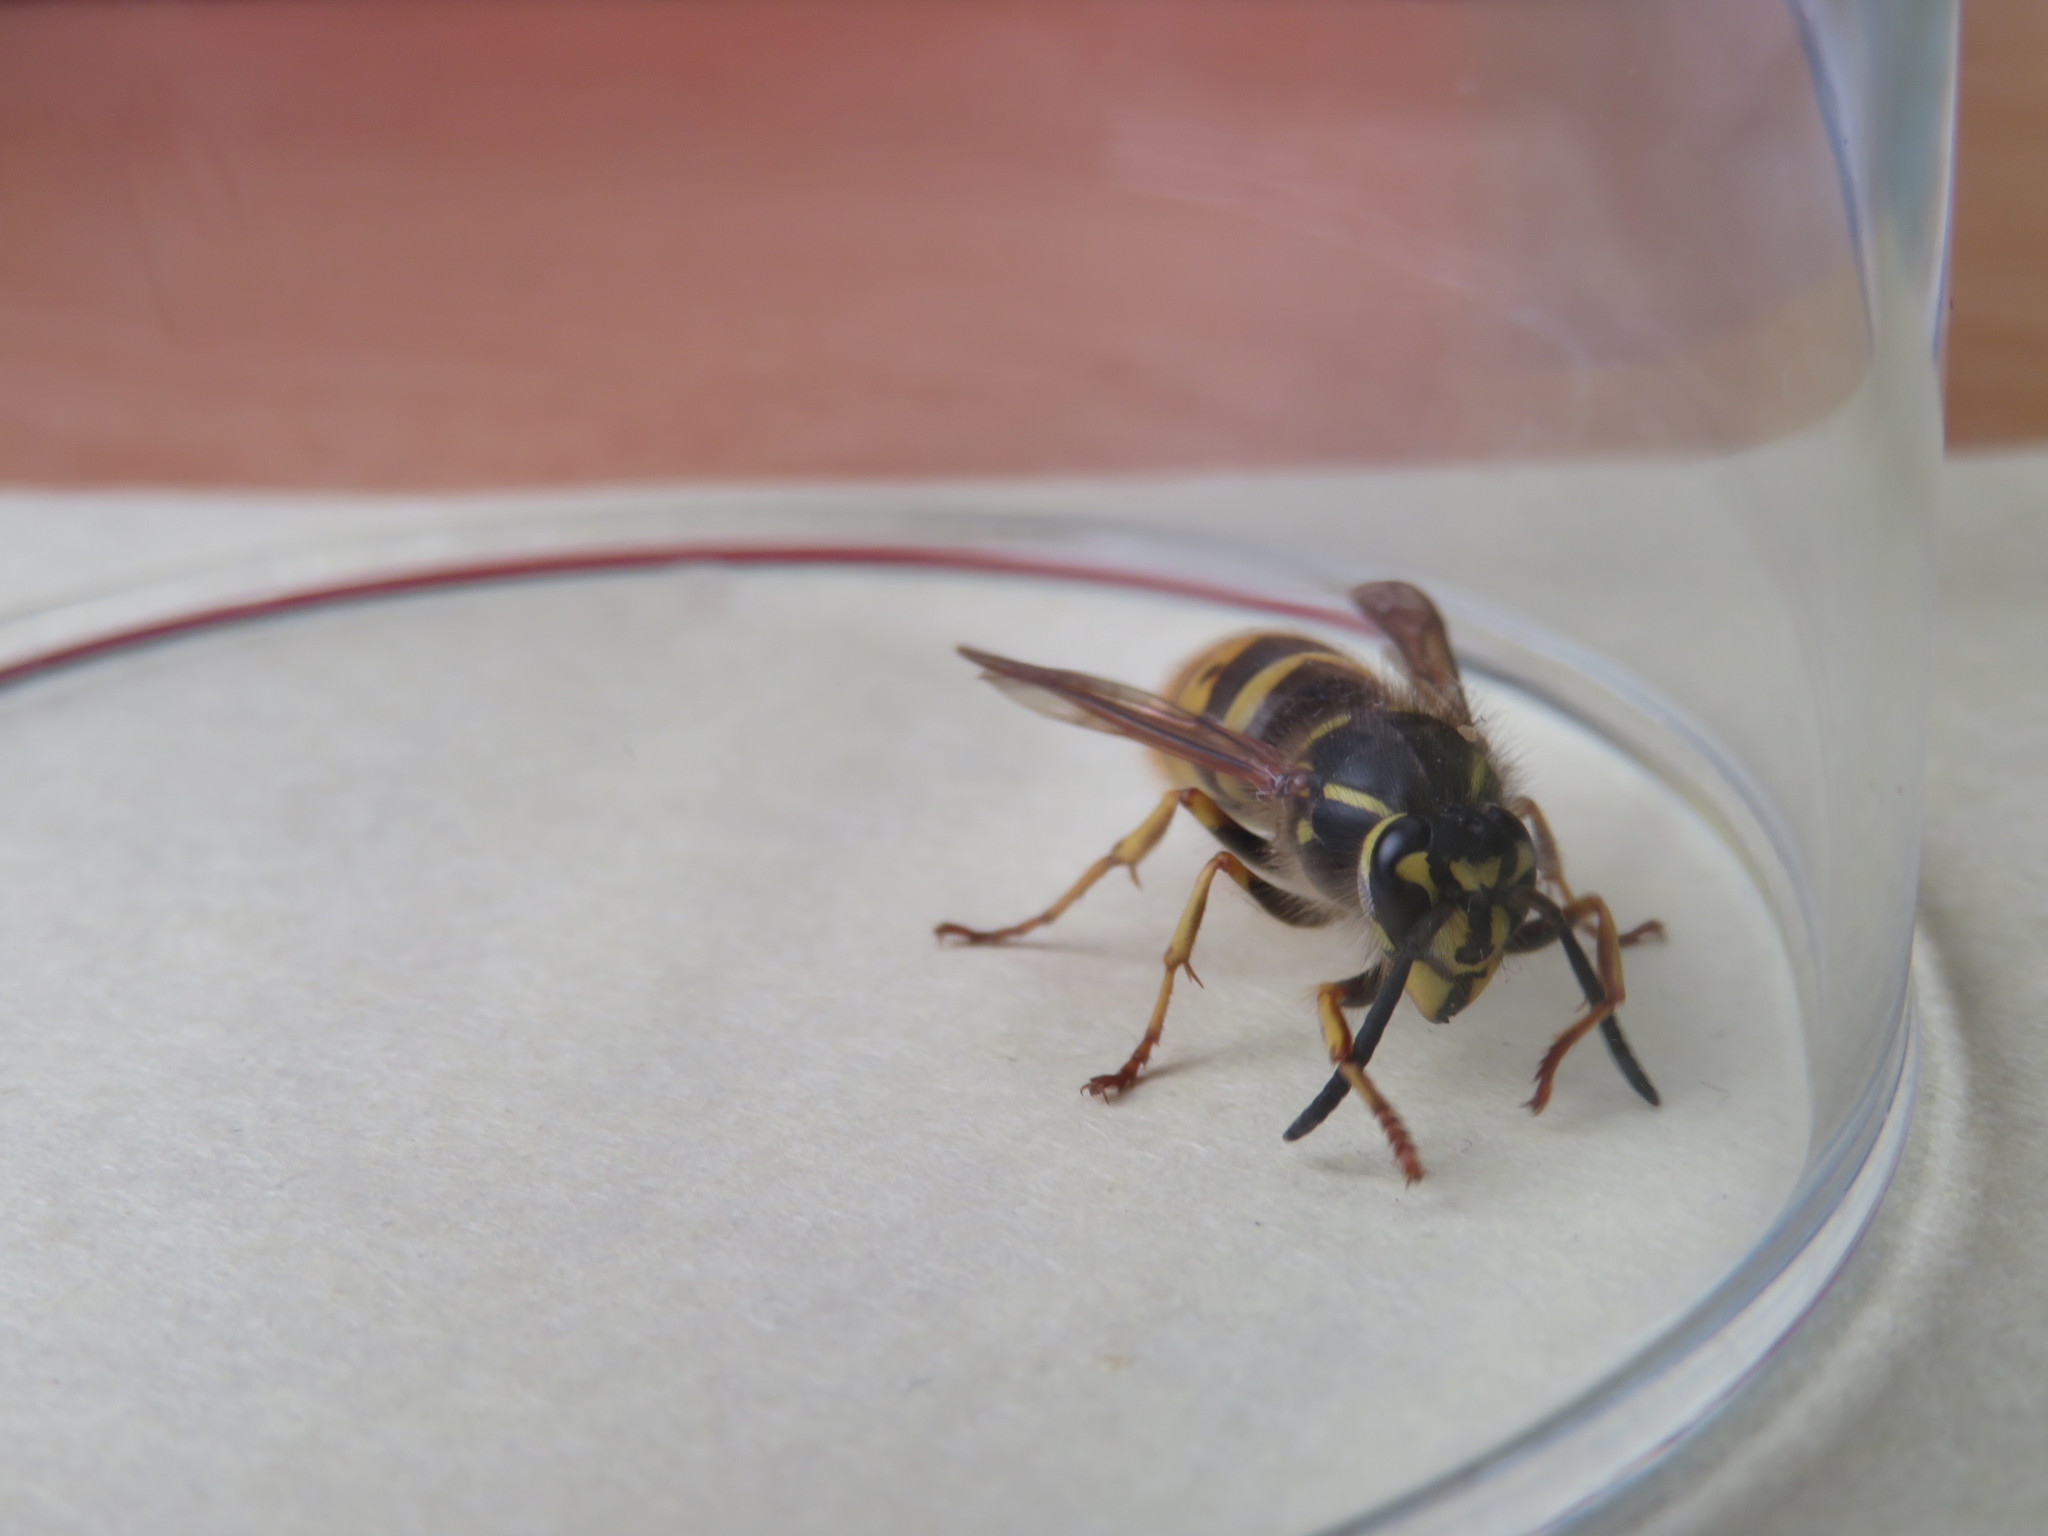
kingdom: Animalia
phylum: Arthropoda
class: Insecta
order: Hymenoptera
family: Vespidae
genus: Vespula
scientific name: Vespula vulgaris
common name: Common wasp
